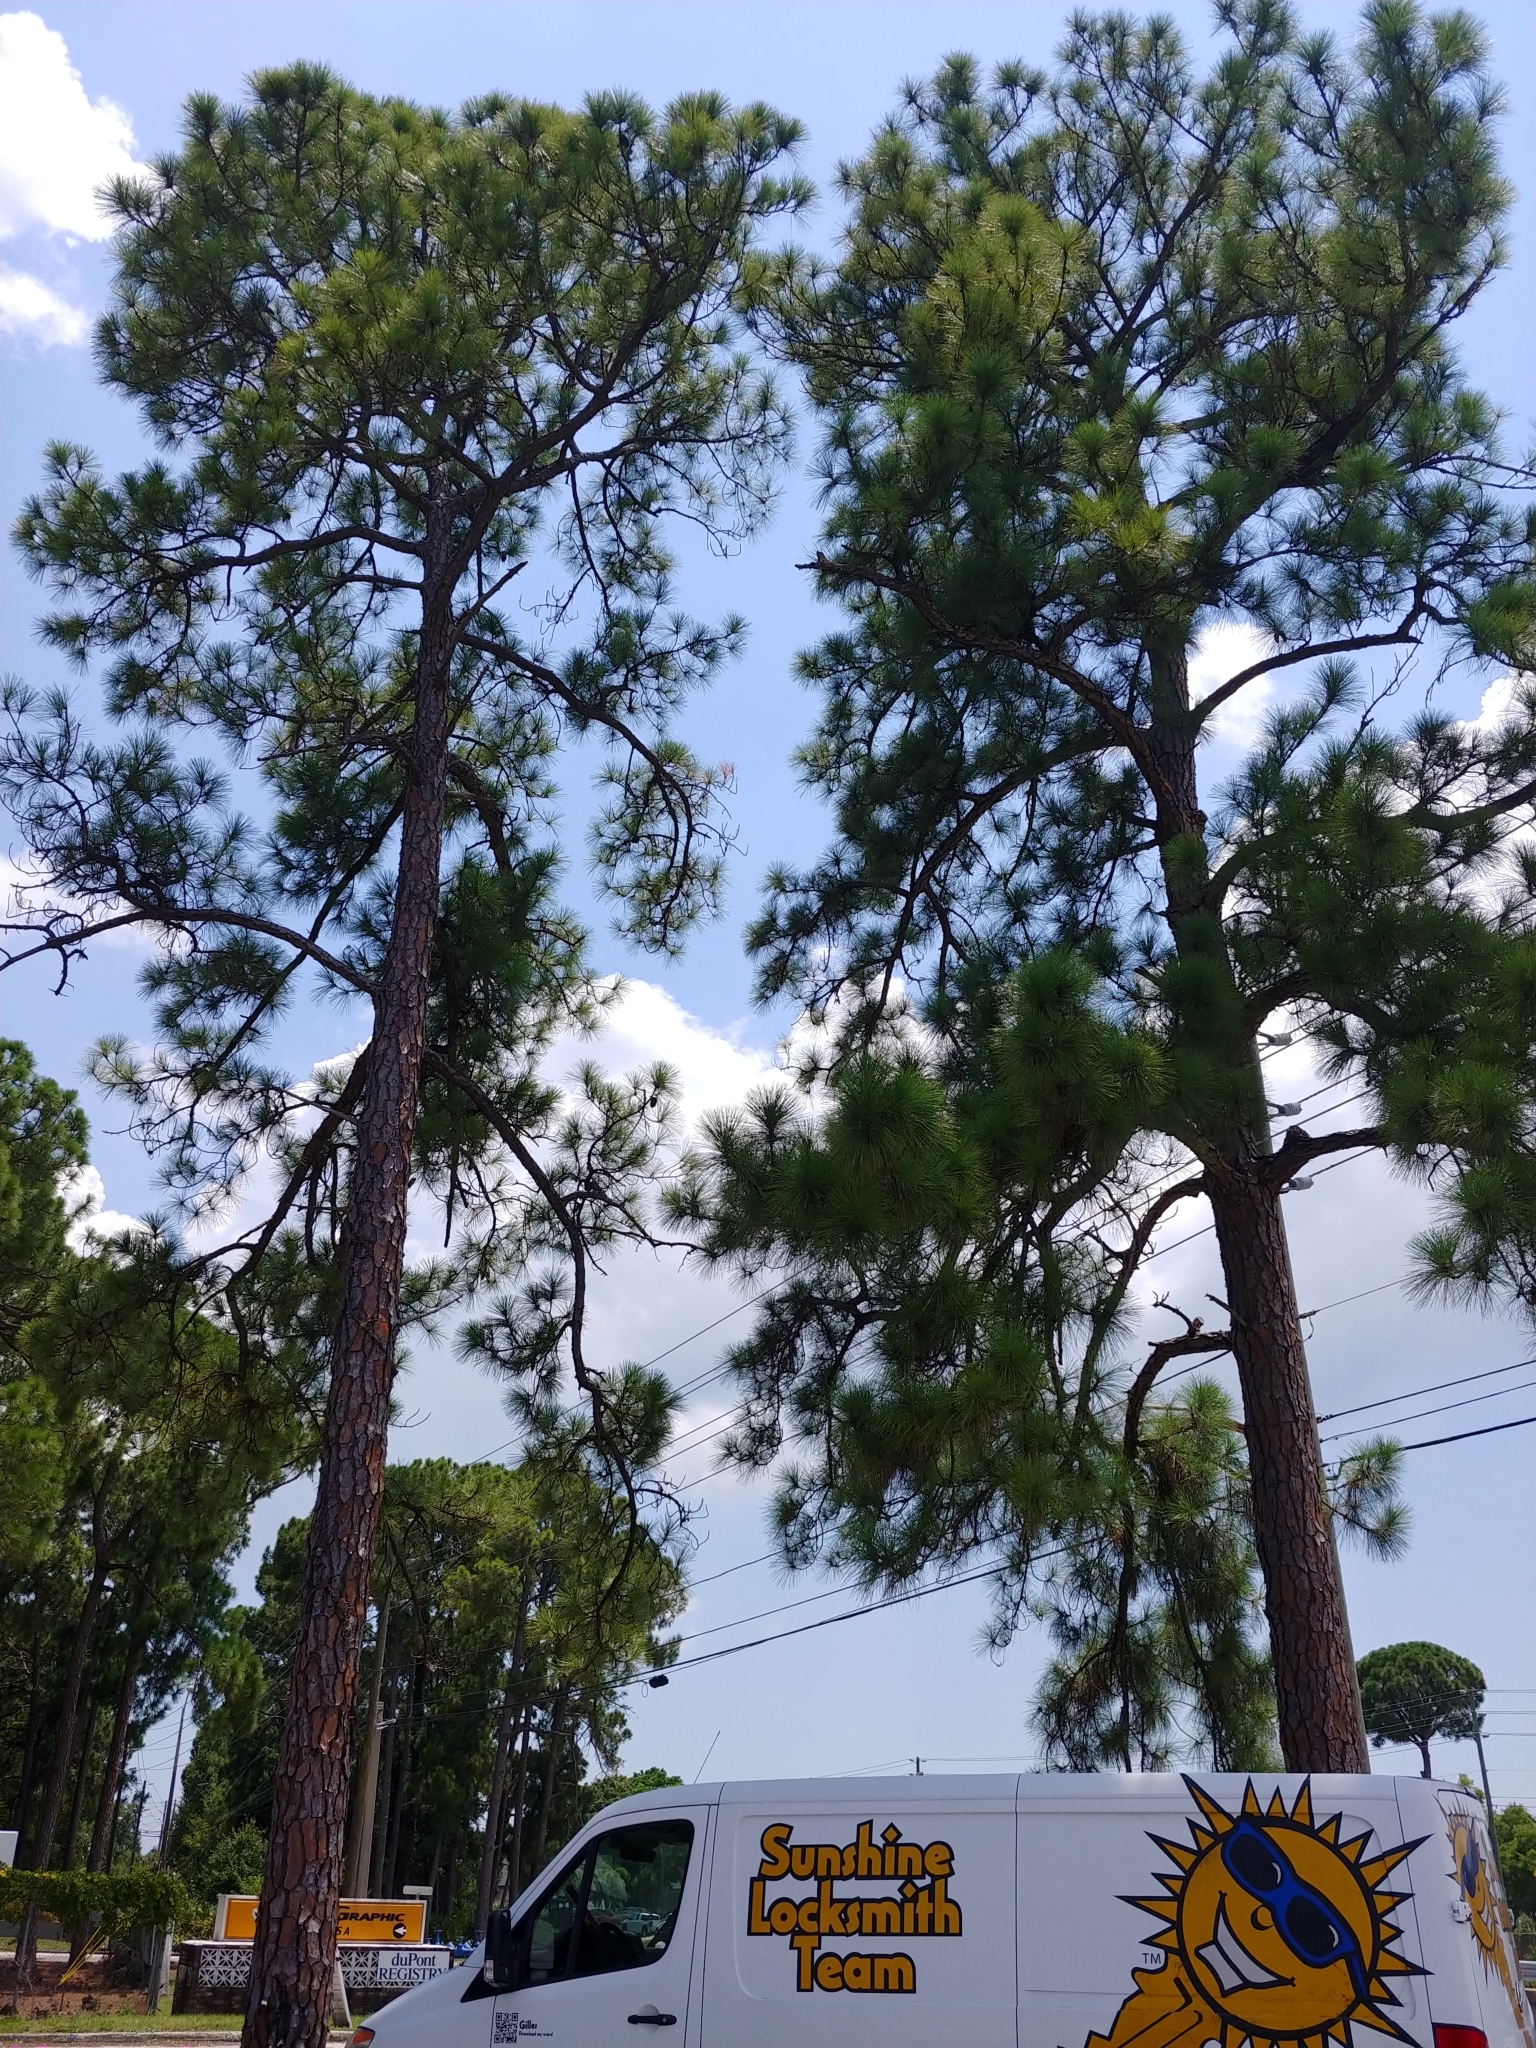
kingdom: Plantae
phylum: Tracheophyta
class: Pinopsida
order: Pinales
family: Pinaceae
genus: Pinus
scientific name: Pinus elliottii
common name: Slash pine
